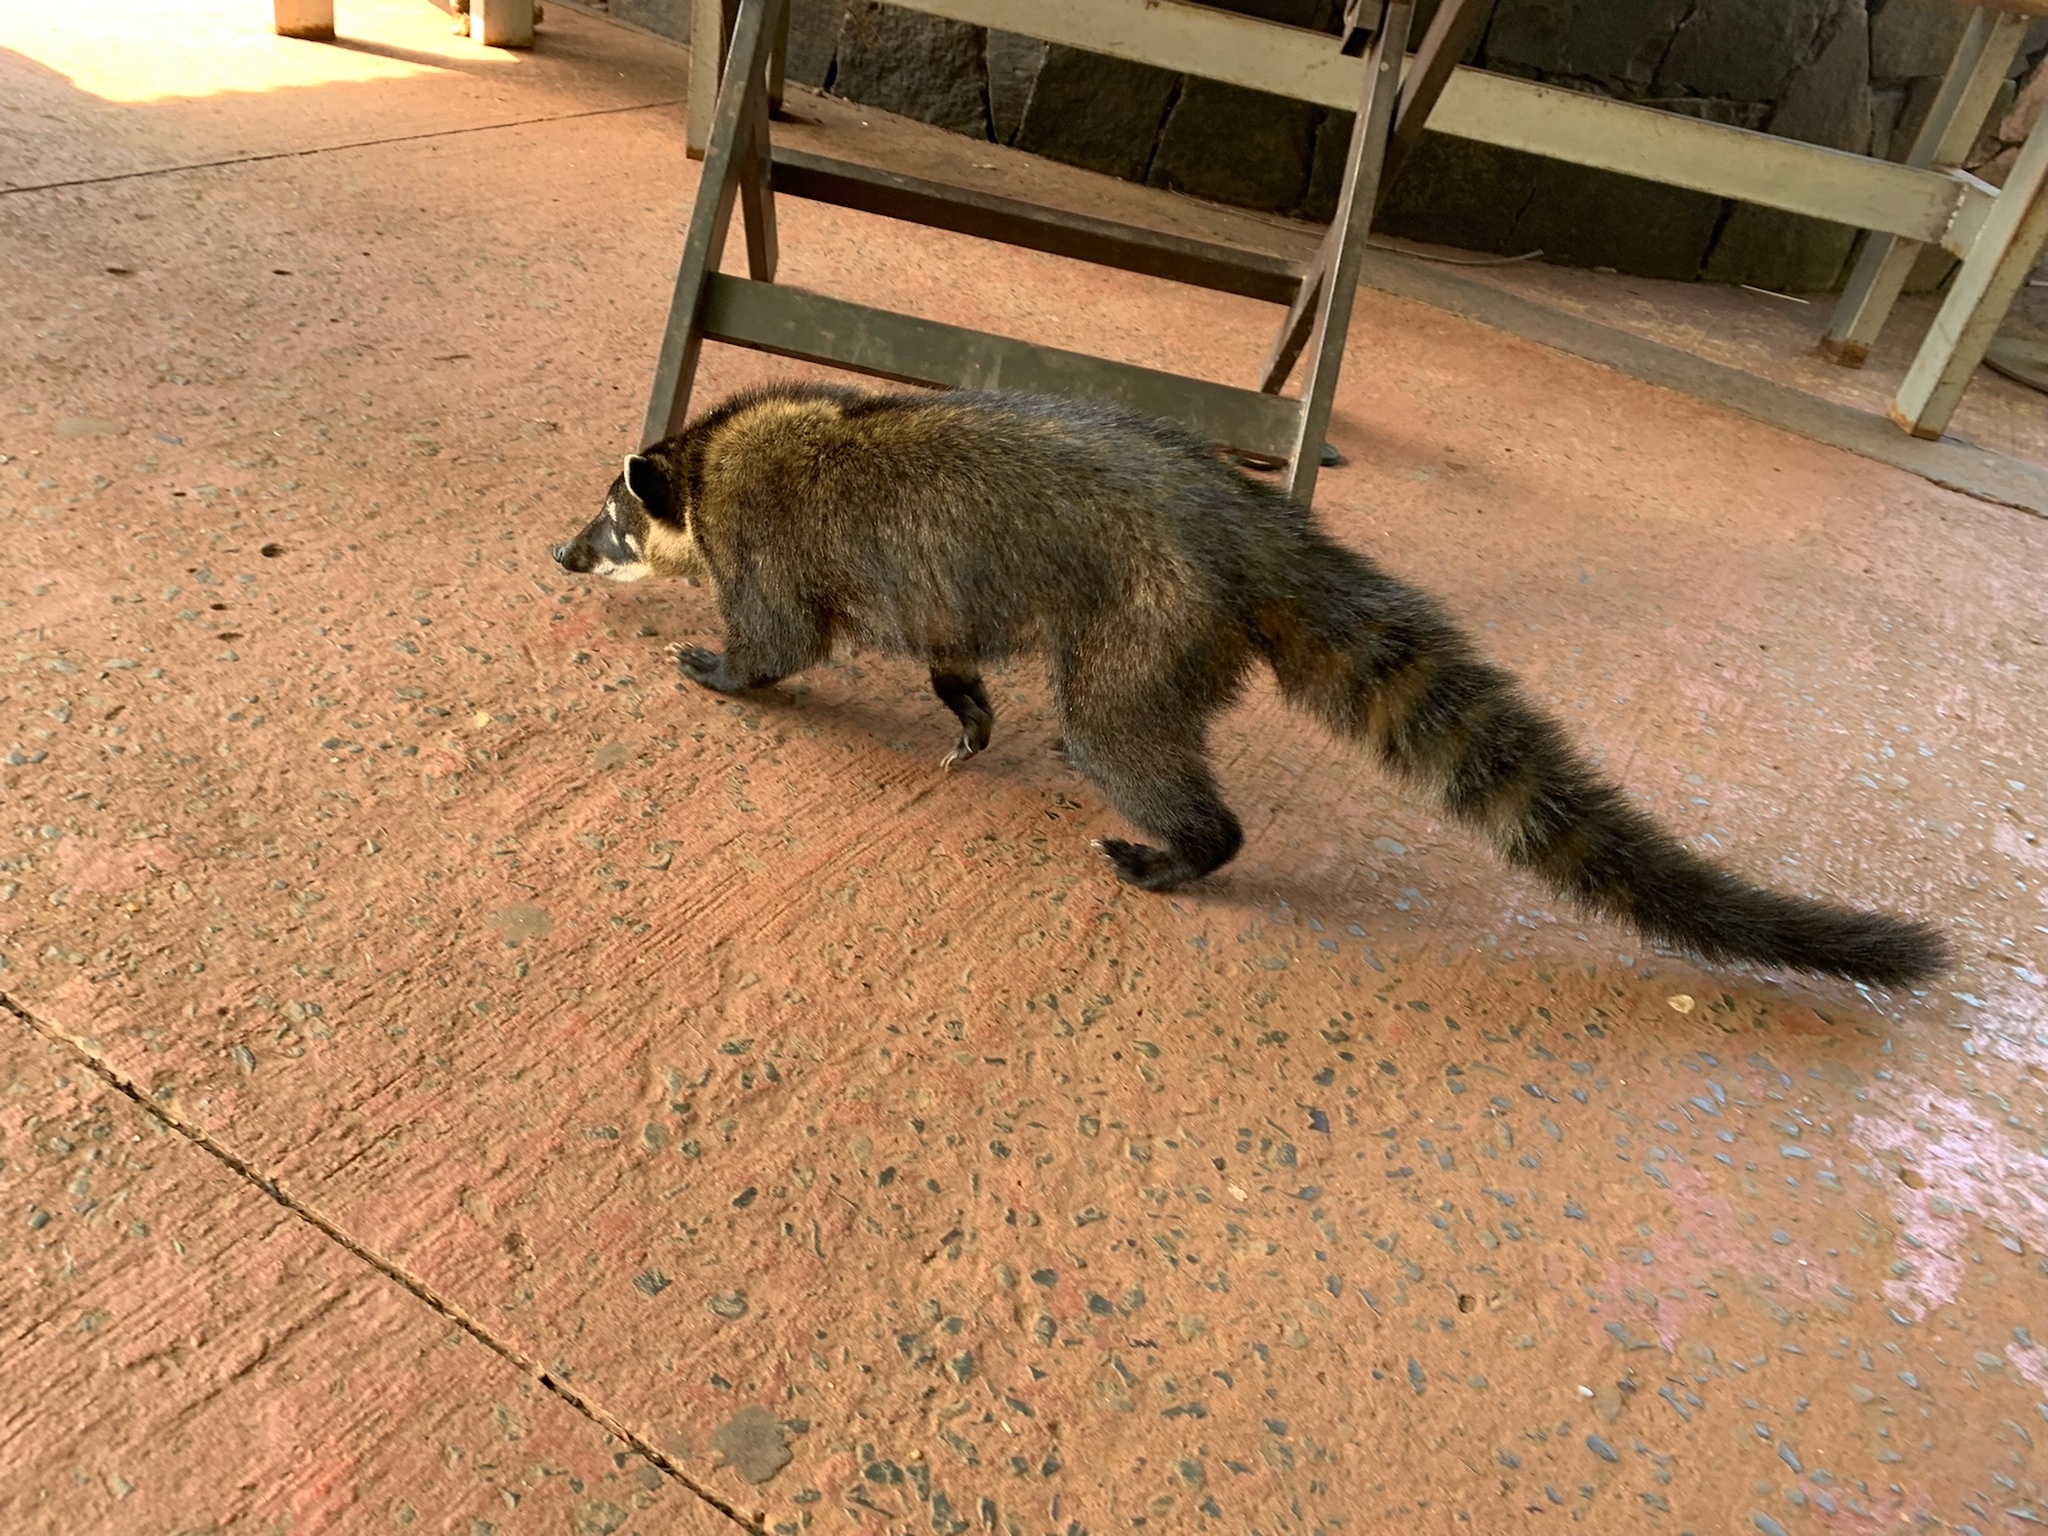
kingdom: Animalia
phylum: Chordata
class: Mammalia
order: Carnivora
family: Procyonidae
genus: Nasua
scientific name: Nasua nasua
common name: South american coati
